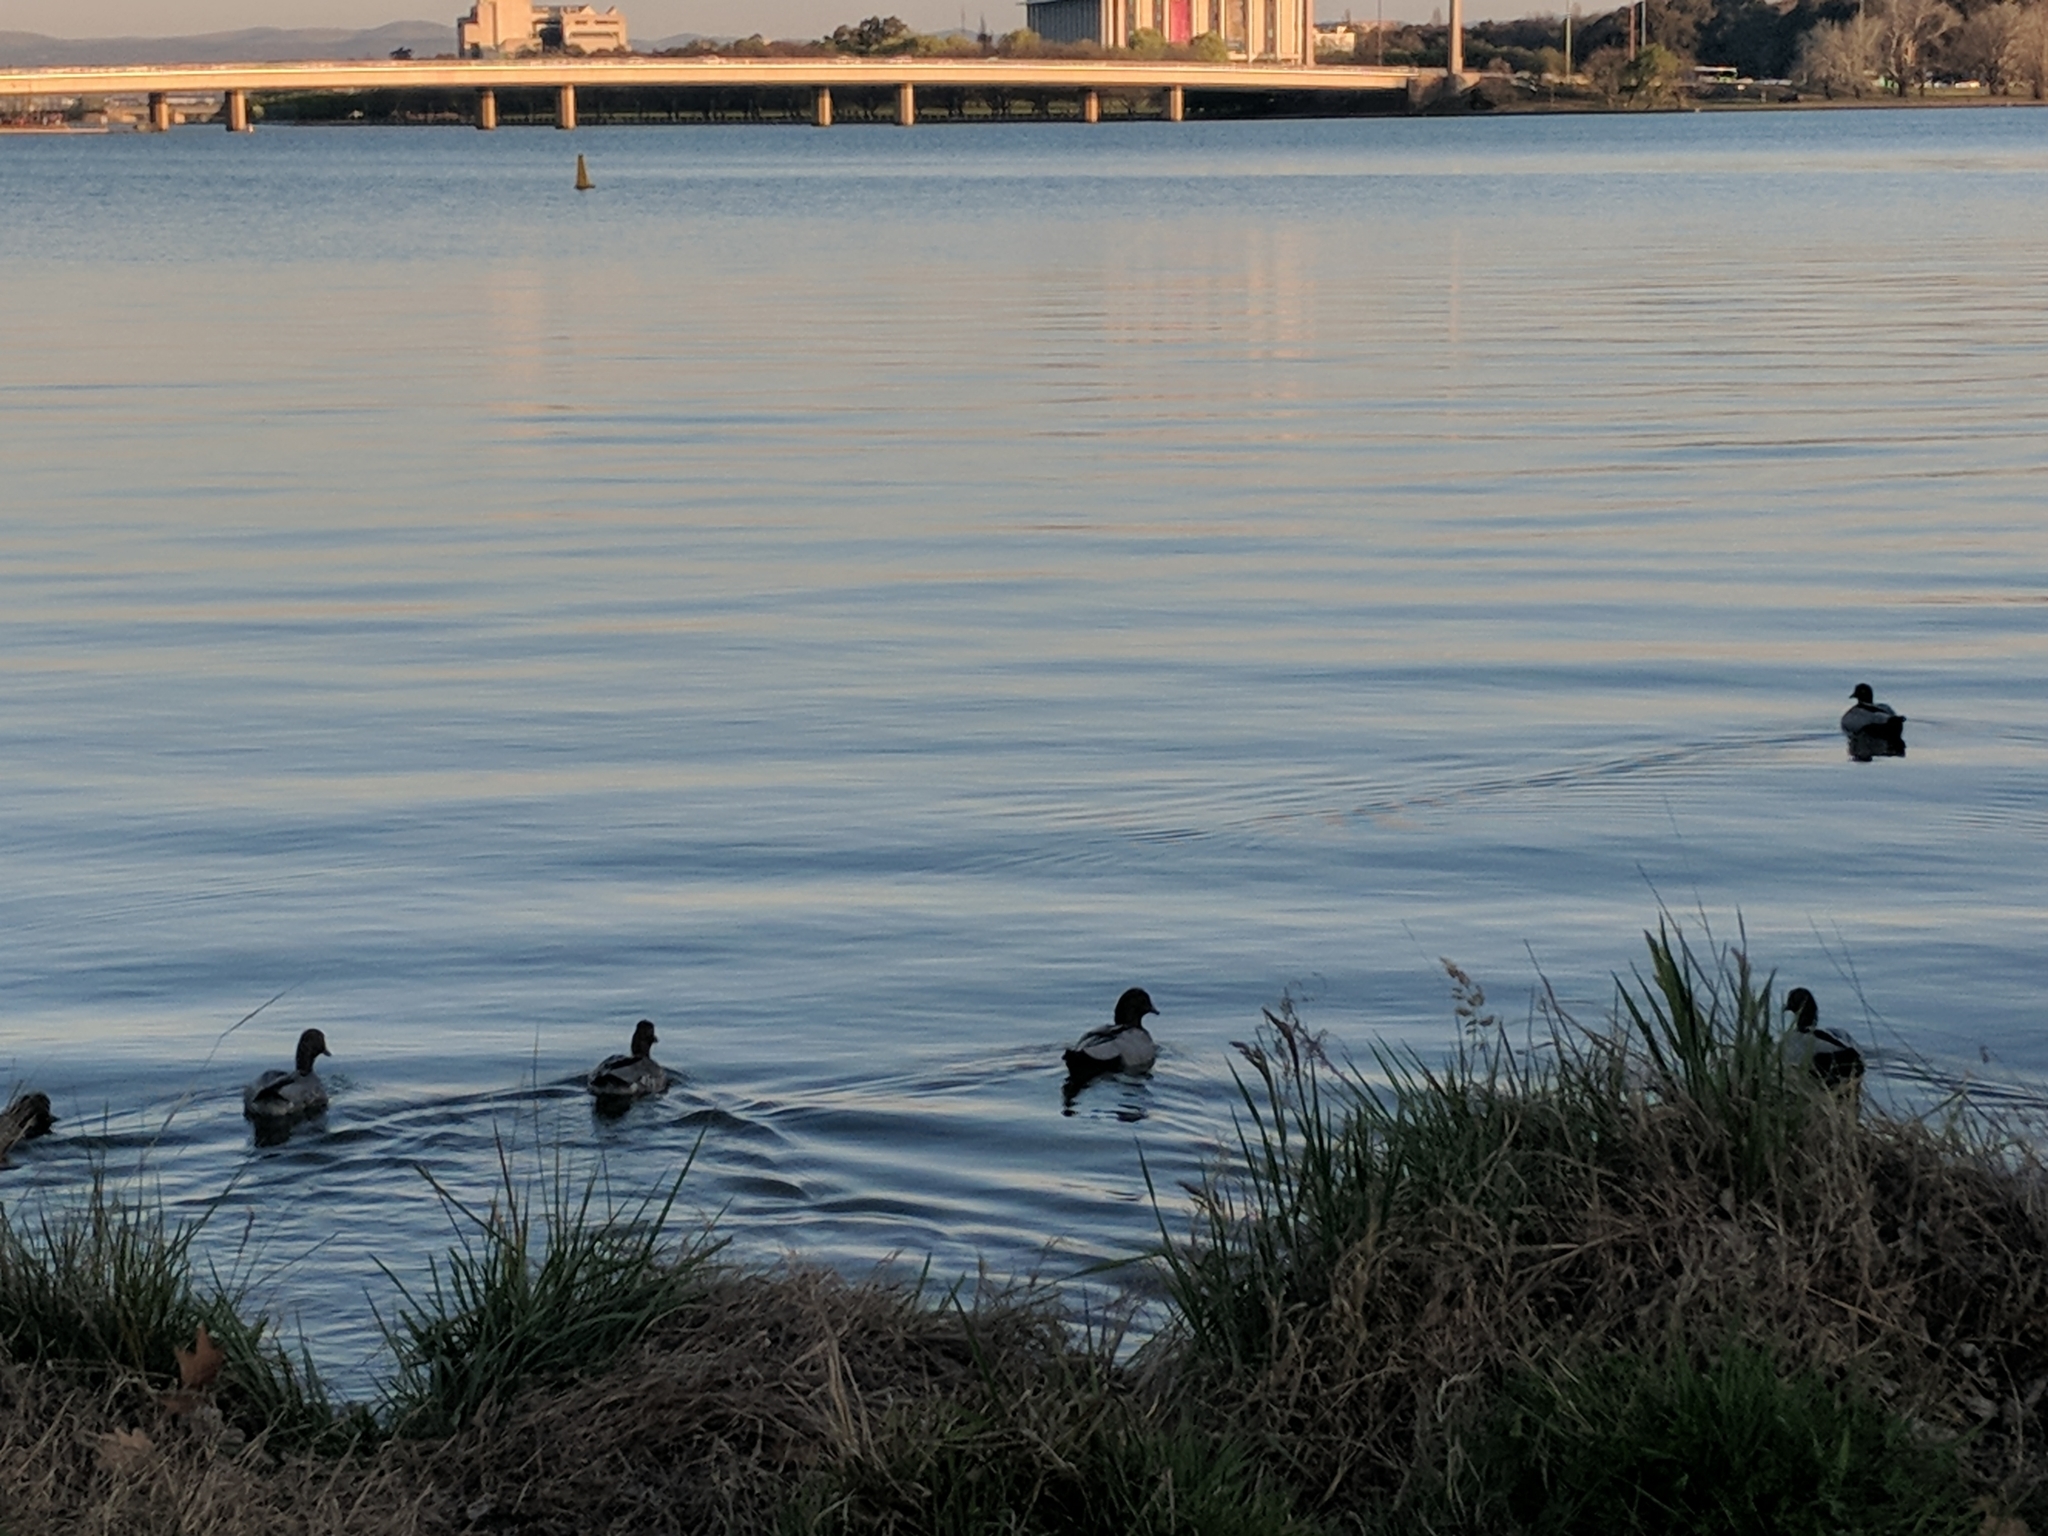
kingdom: Animalia
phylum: Chordata
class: Aves
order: Anseriformes
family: Anatidae
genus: Chenonetta
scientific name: Chenonetta jubata
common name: Maned duck
